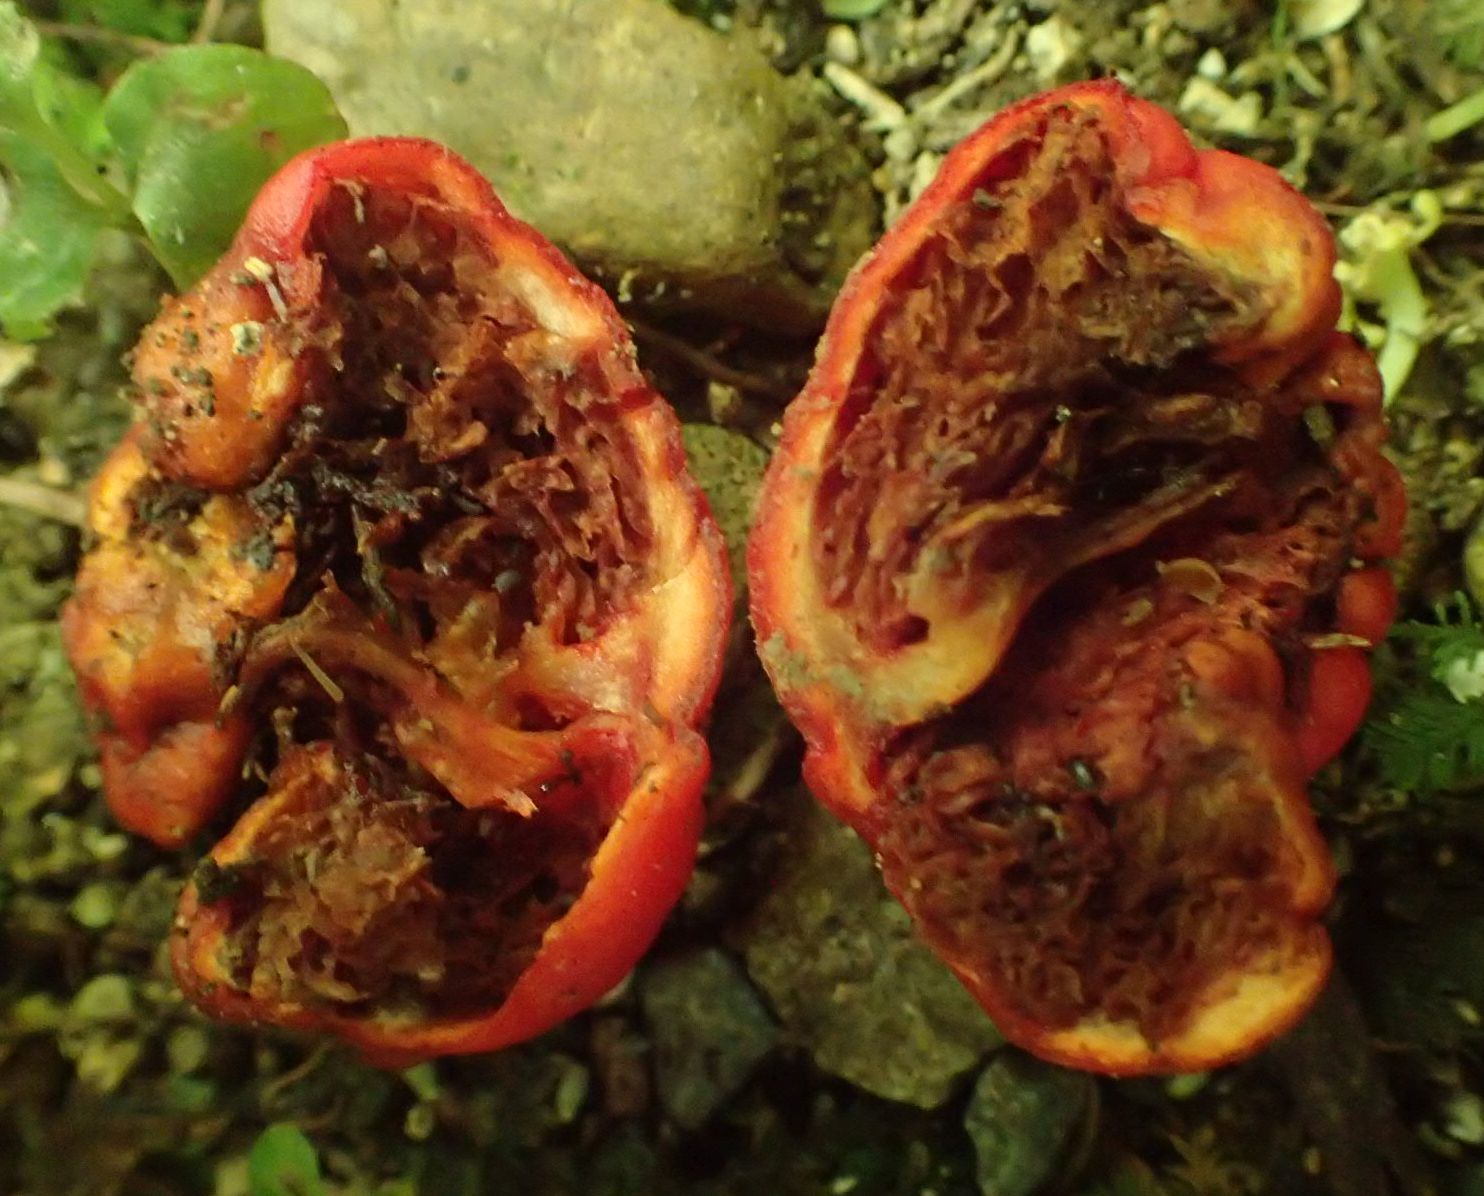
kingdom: Fungi
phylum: Basidiomycota
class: Agaricomycetes
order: Agaricales
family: Strophariaceae
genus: Leratiomyces
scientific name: Leratiomyces ceres
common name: Redlead roundhead
